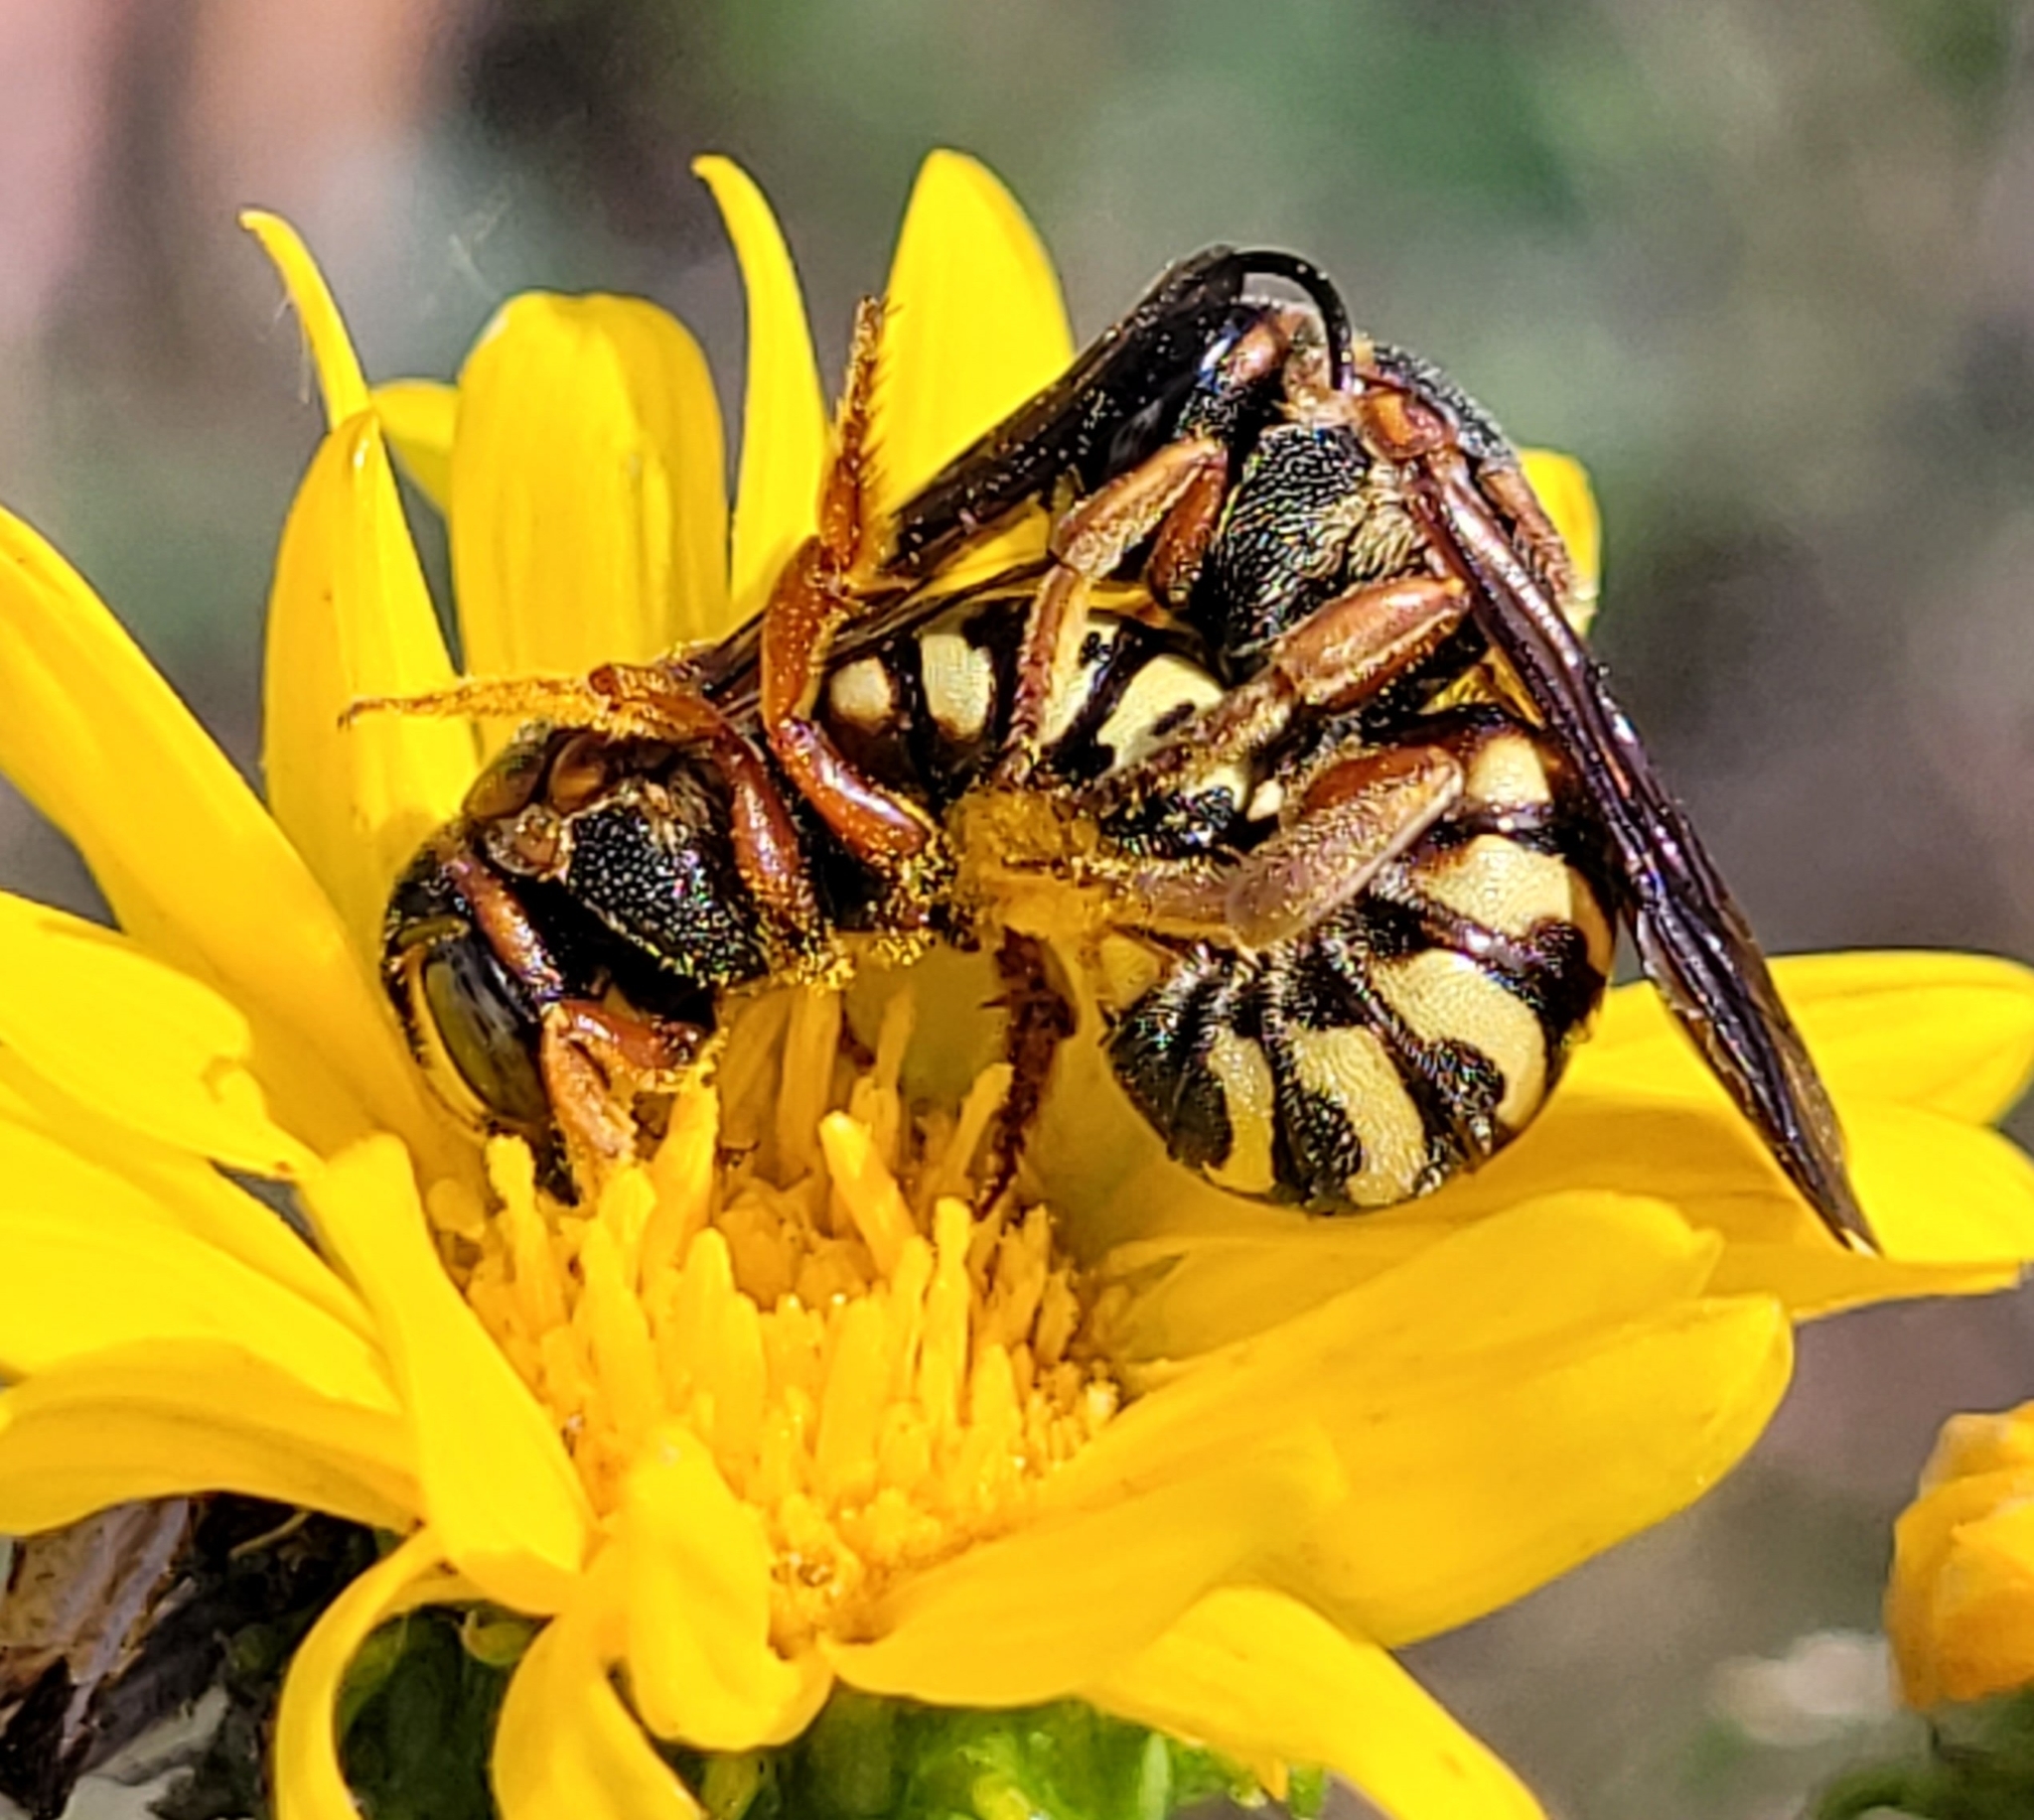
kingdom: Animalia
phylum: Arthropoda
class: Insecta
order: Hymenoptera
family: Megachilidae
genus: Dianthidium
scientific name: Dianthidium curvatum
